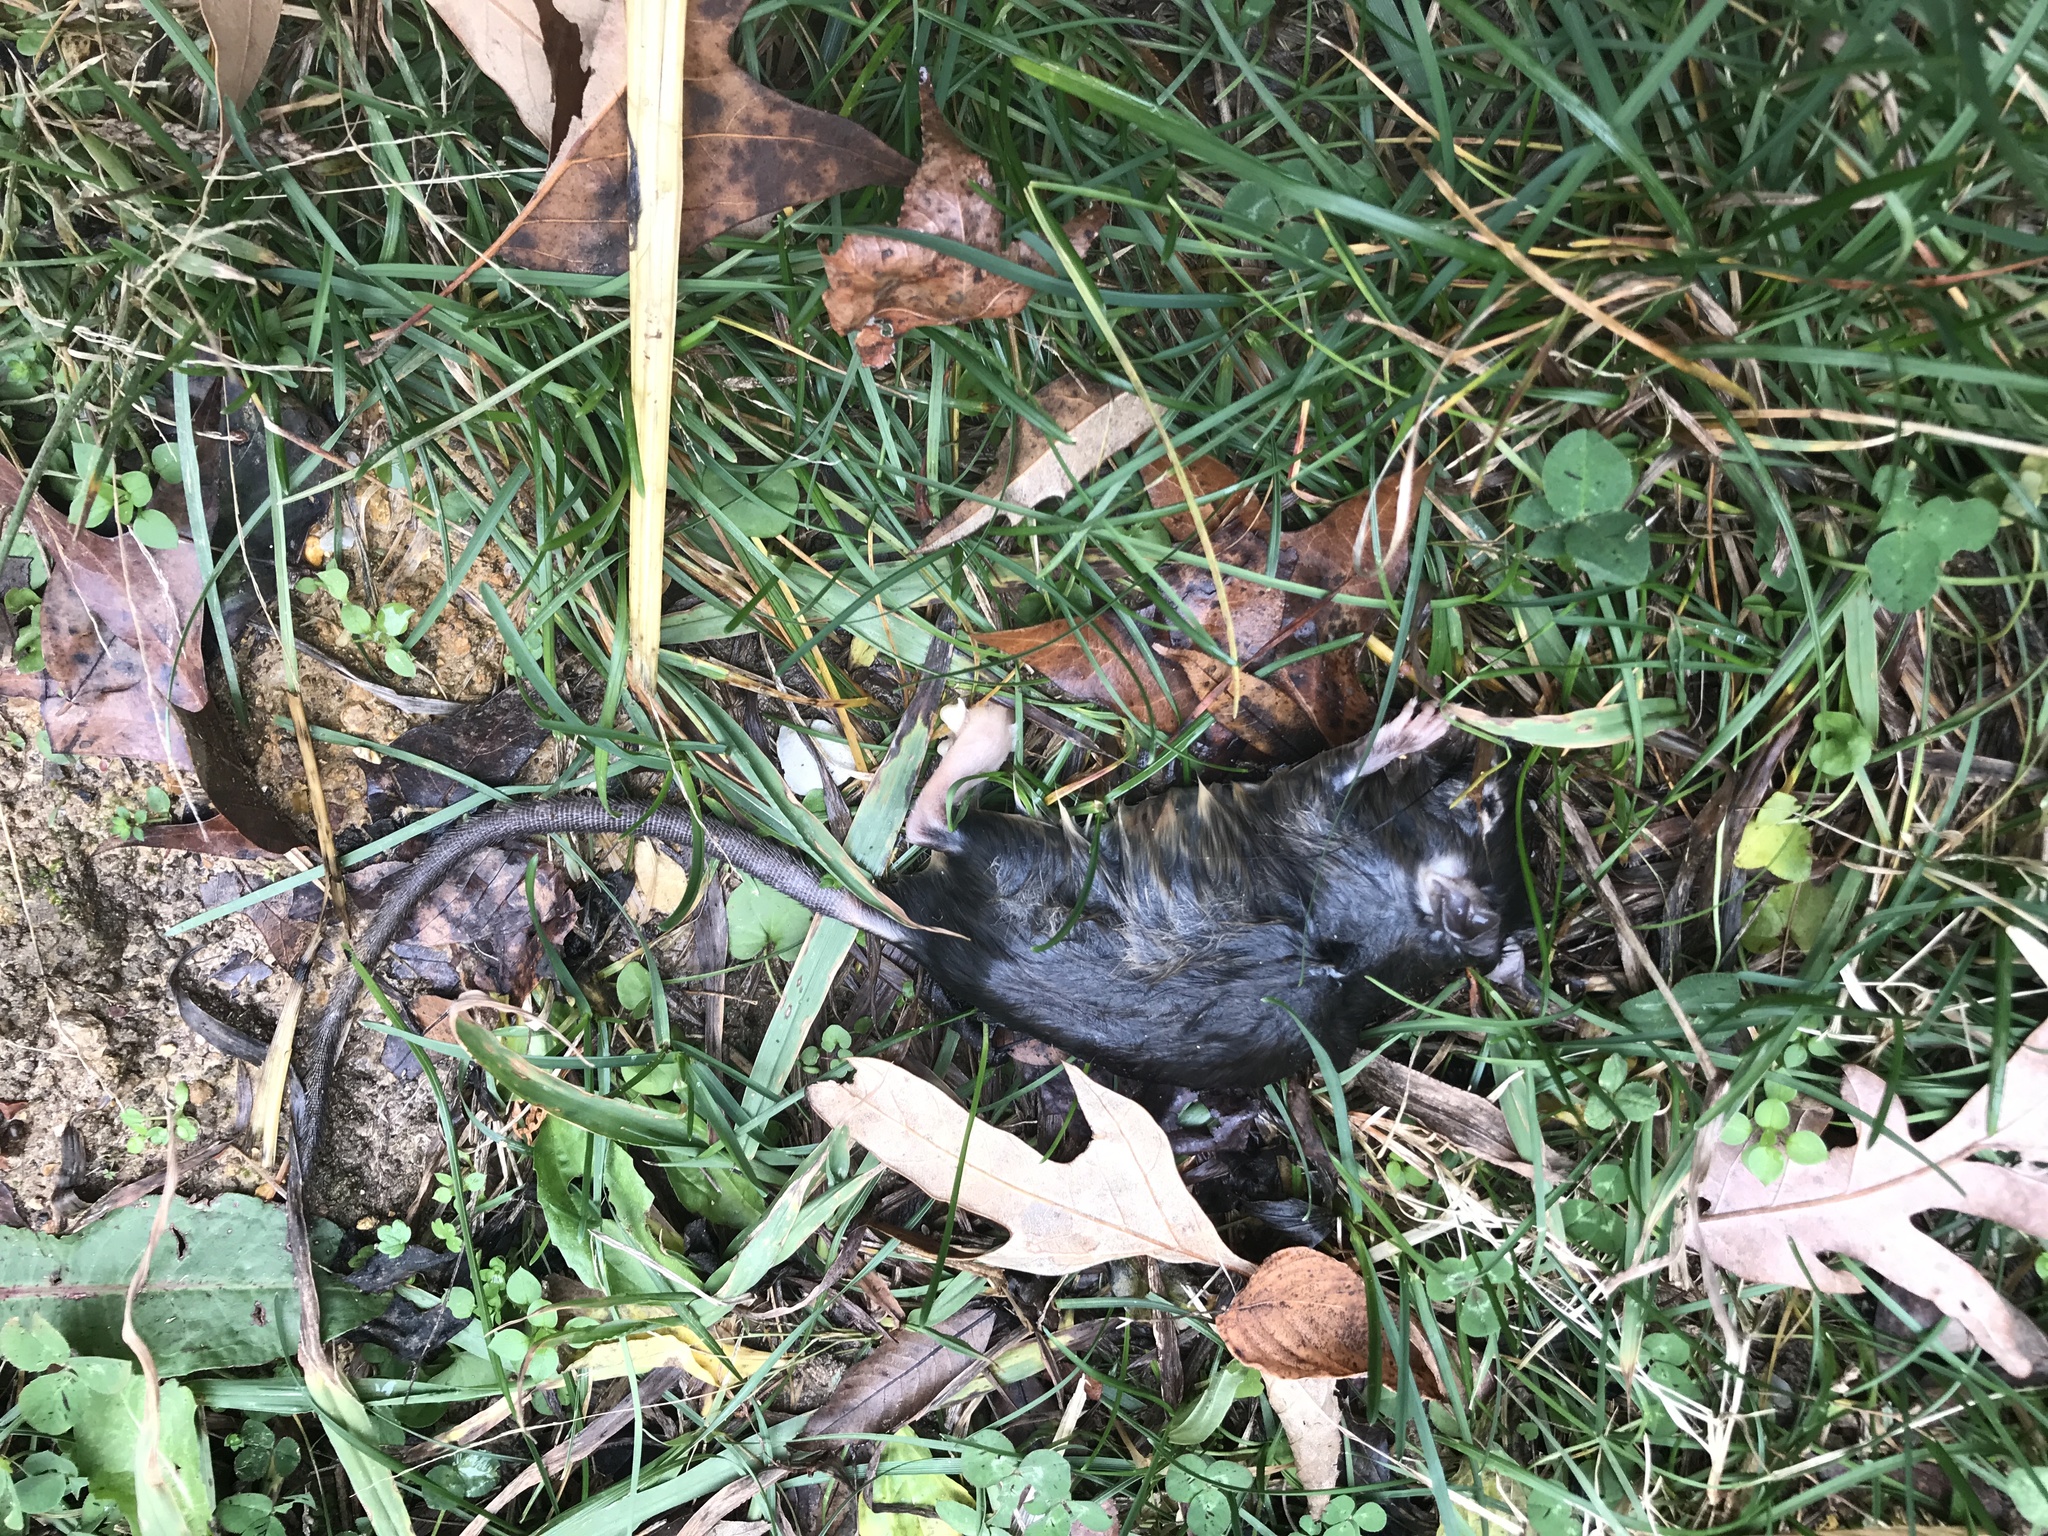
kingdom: Animalia
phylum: Chordata
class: Mammalia
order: Rodentia
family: Muridae
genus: Rattus
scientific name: Rattus rattus
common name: Black rat
